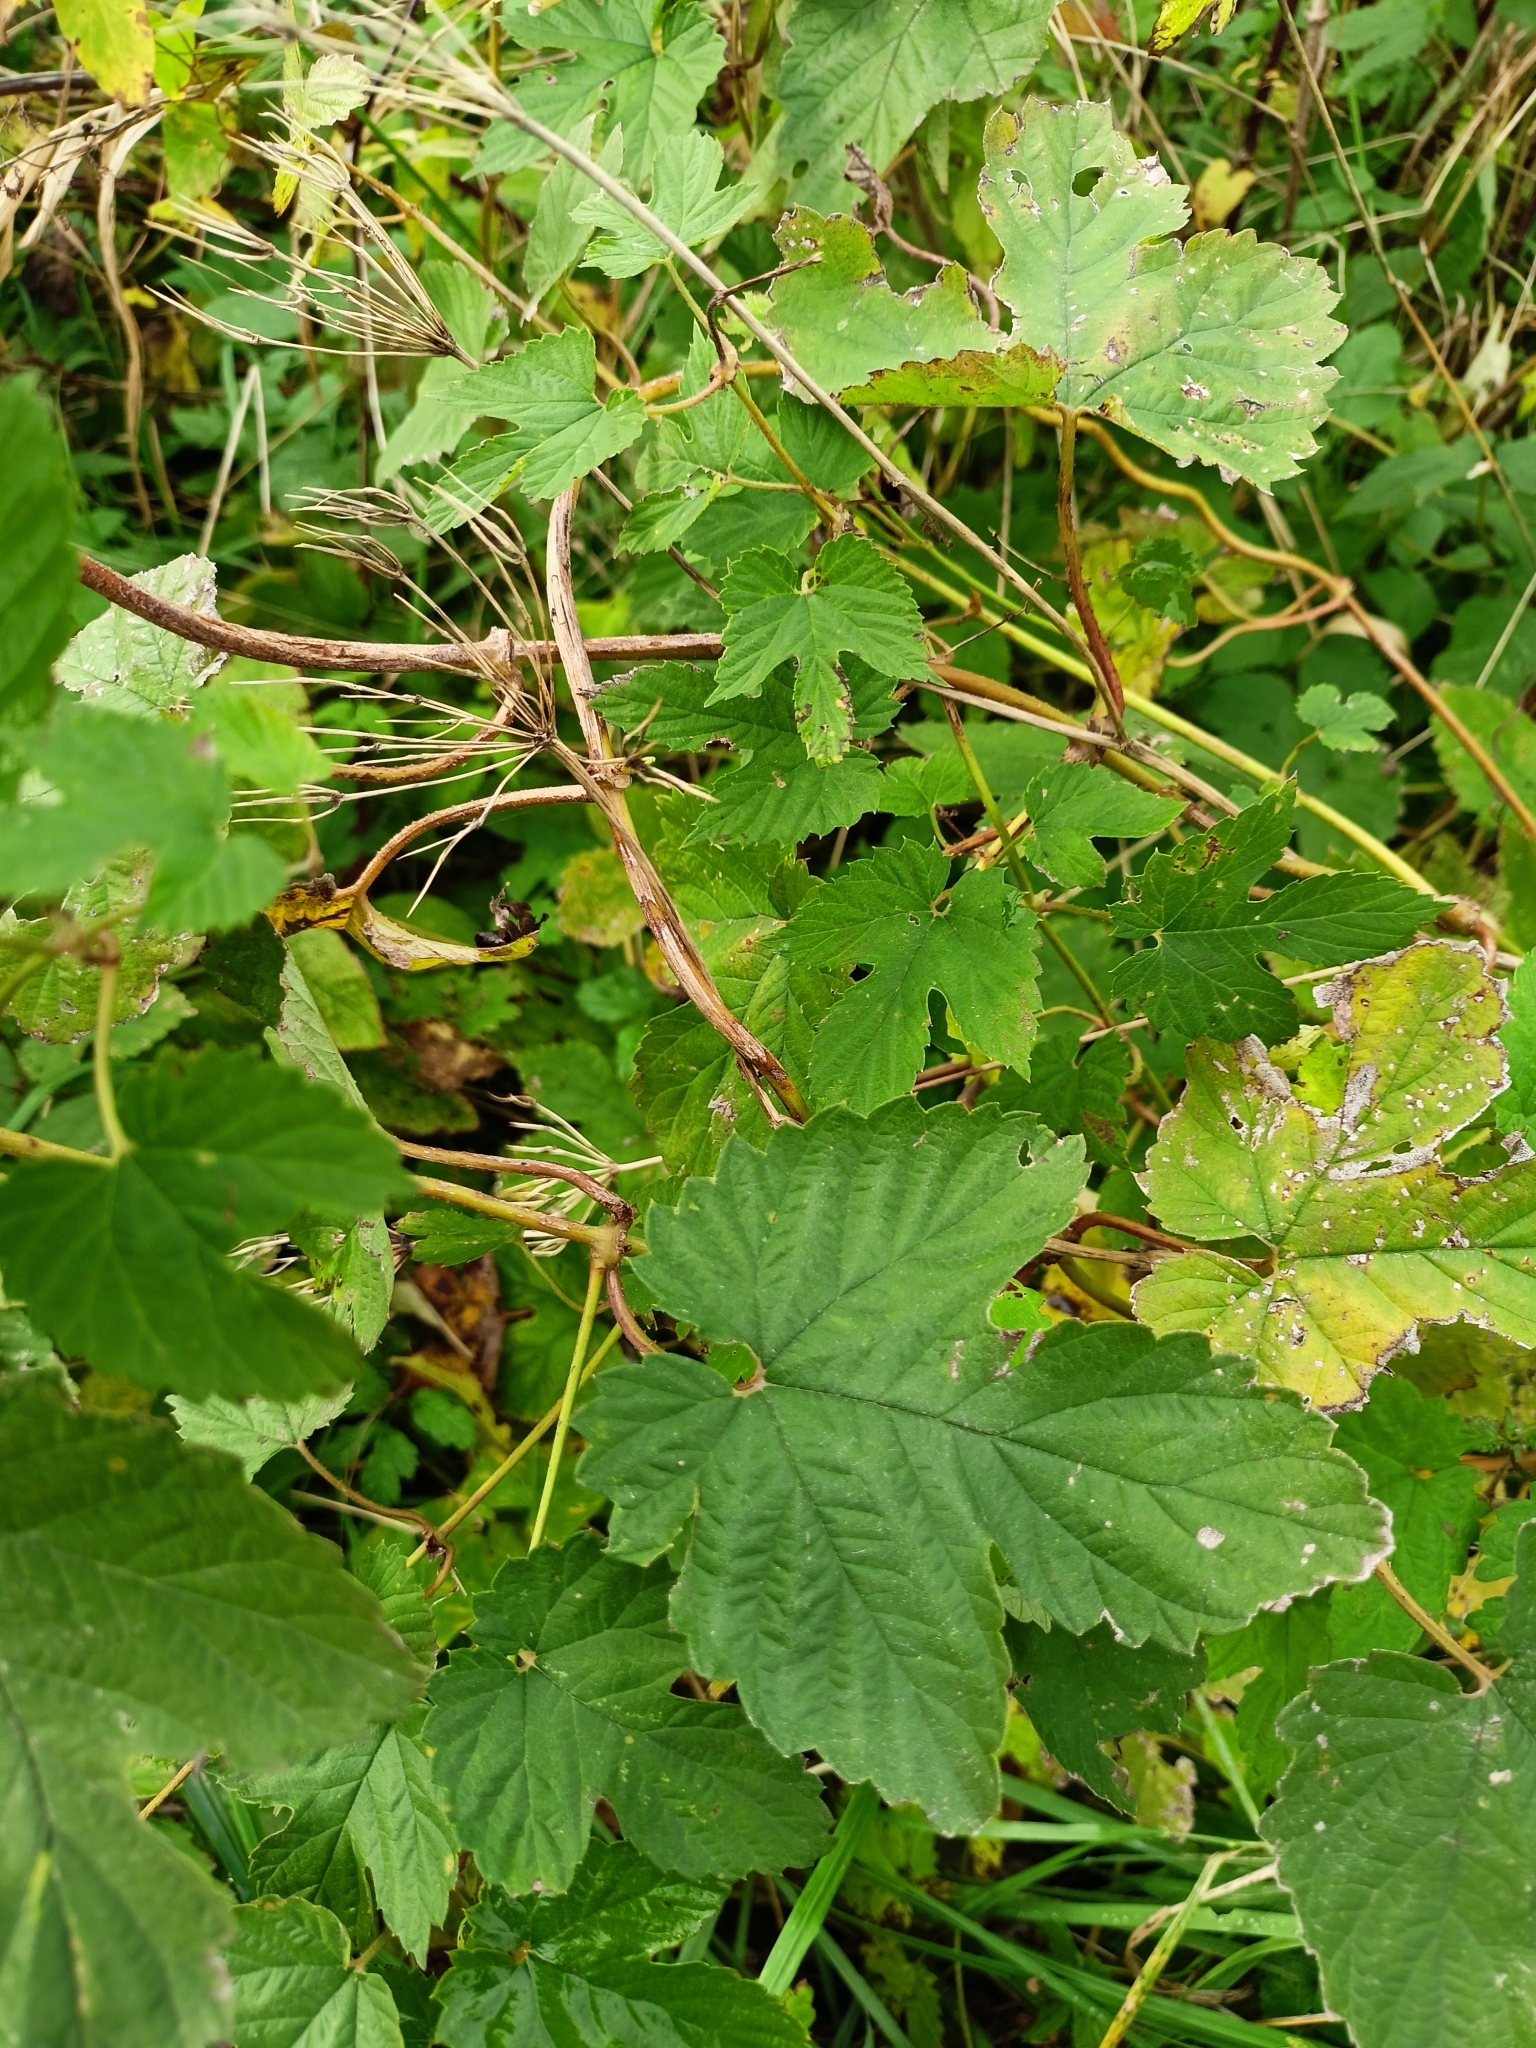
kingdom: Plantae
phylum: Tracheophyta
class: Magnoliopsida
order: Rosales
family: Cannabaceae
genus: Humulus
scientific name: Humulus lupulus
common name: Hop
